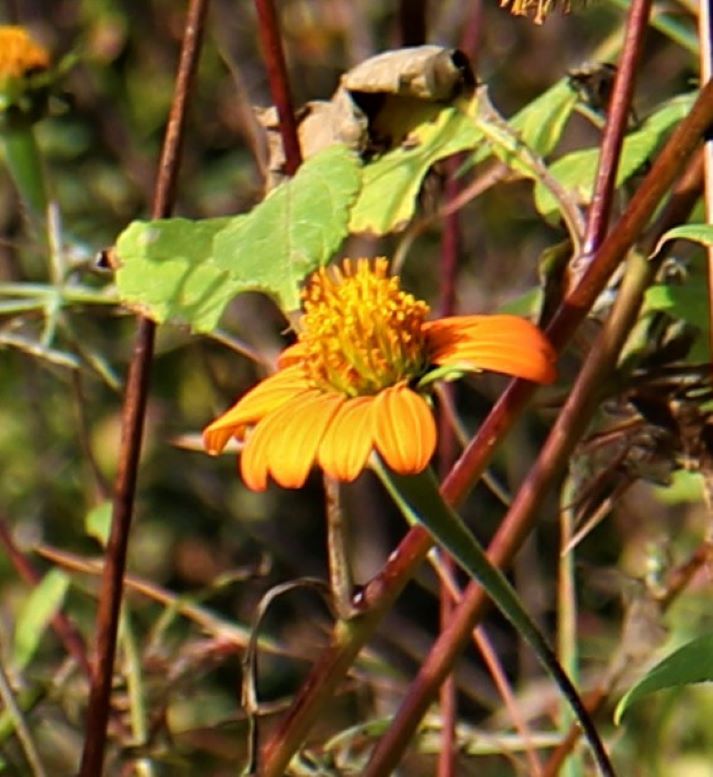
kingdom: Plantae
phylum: Tracheophyta
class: Magnoliopsida
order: Asterales
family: Asteraceae
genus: Tithonia
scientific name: Tithonia rotundifolia
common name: Sunflower
